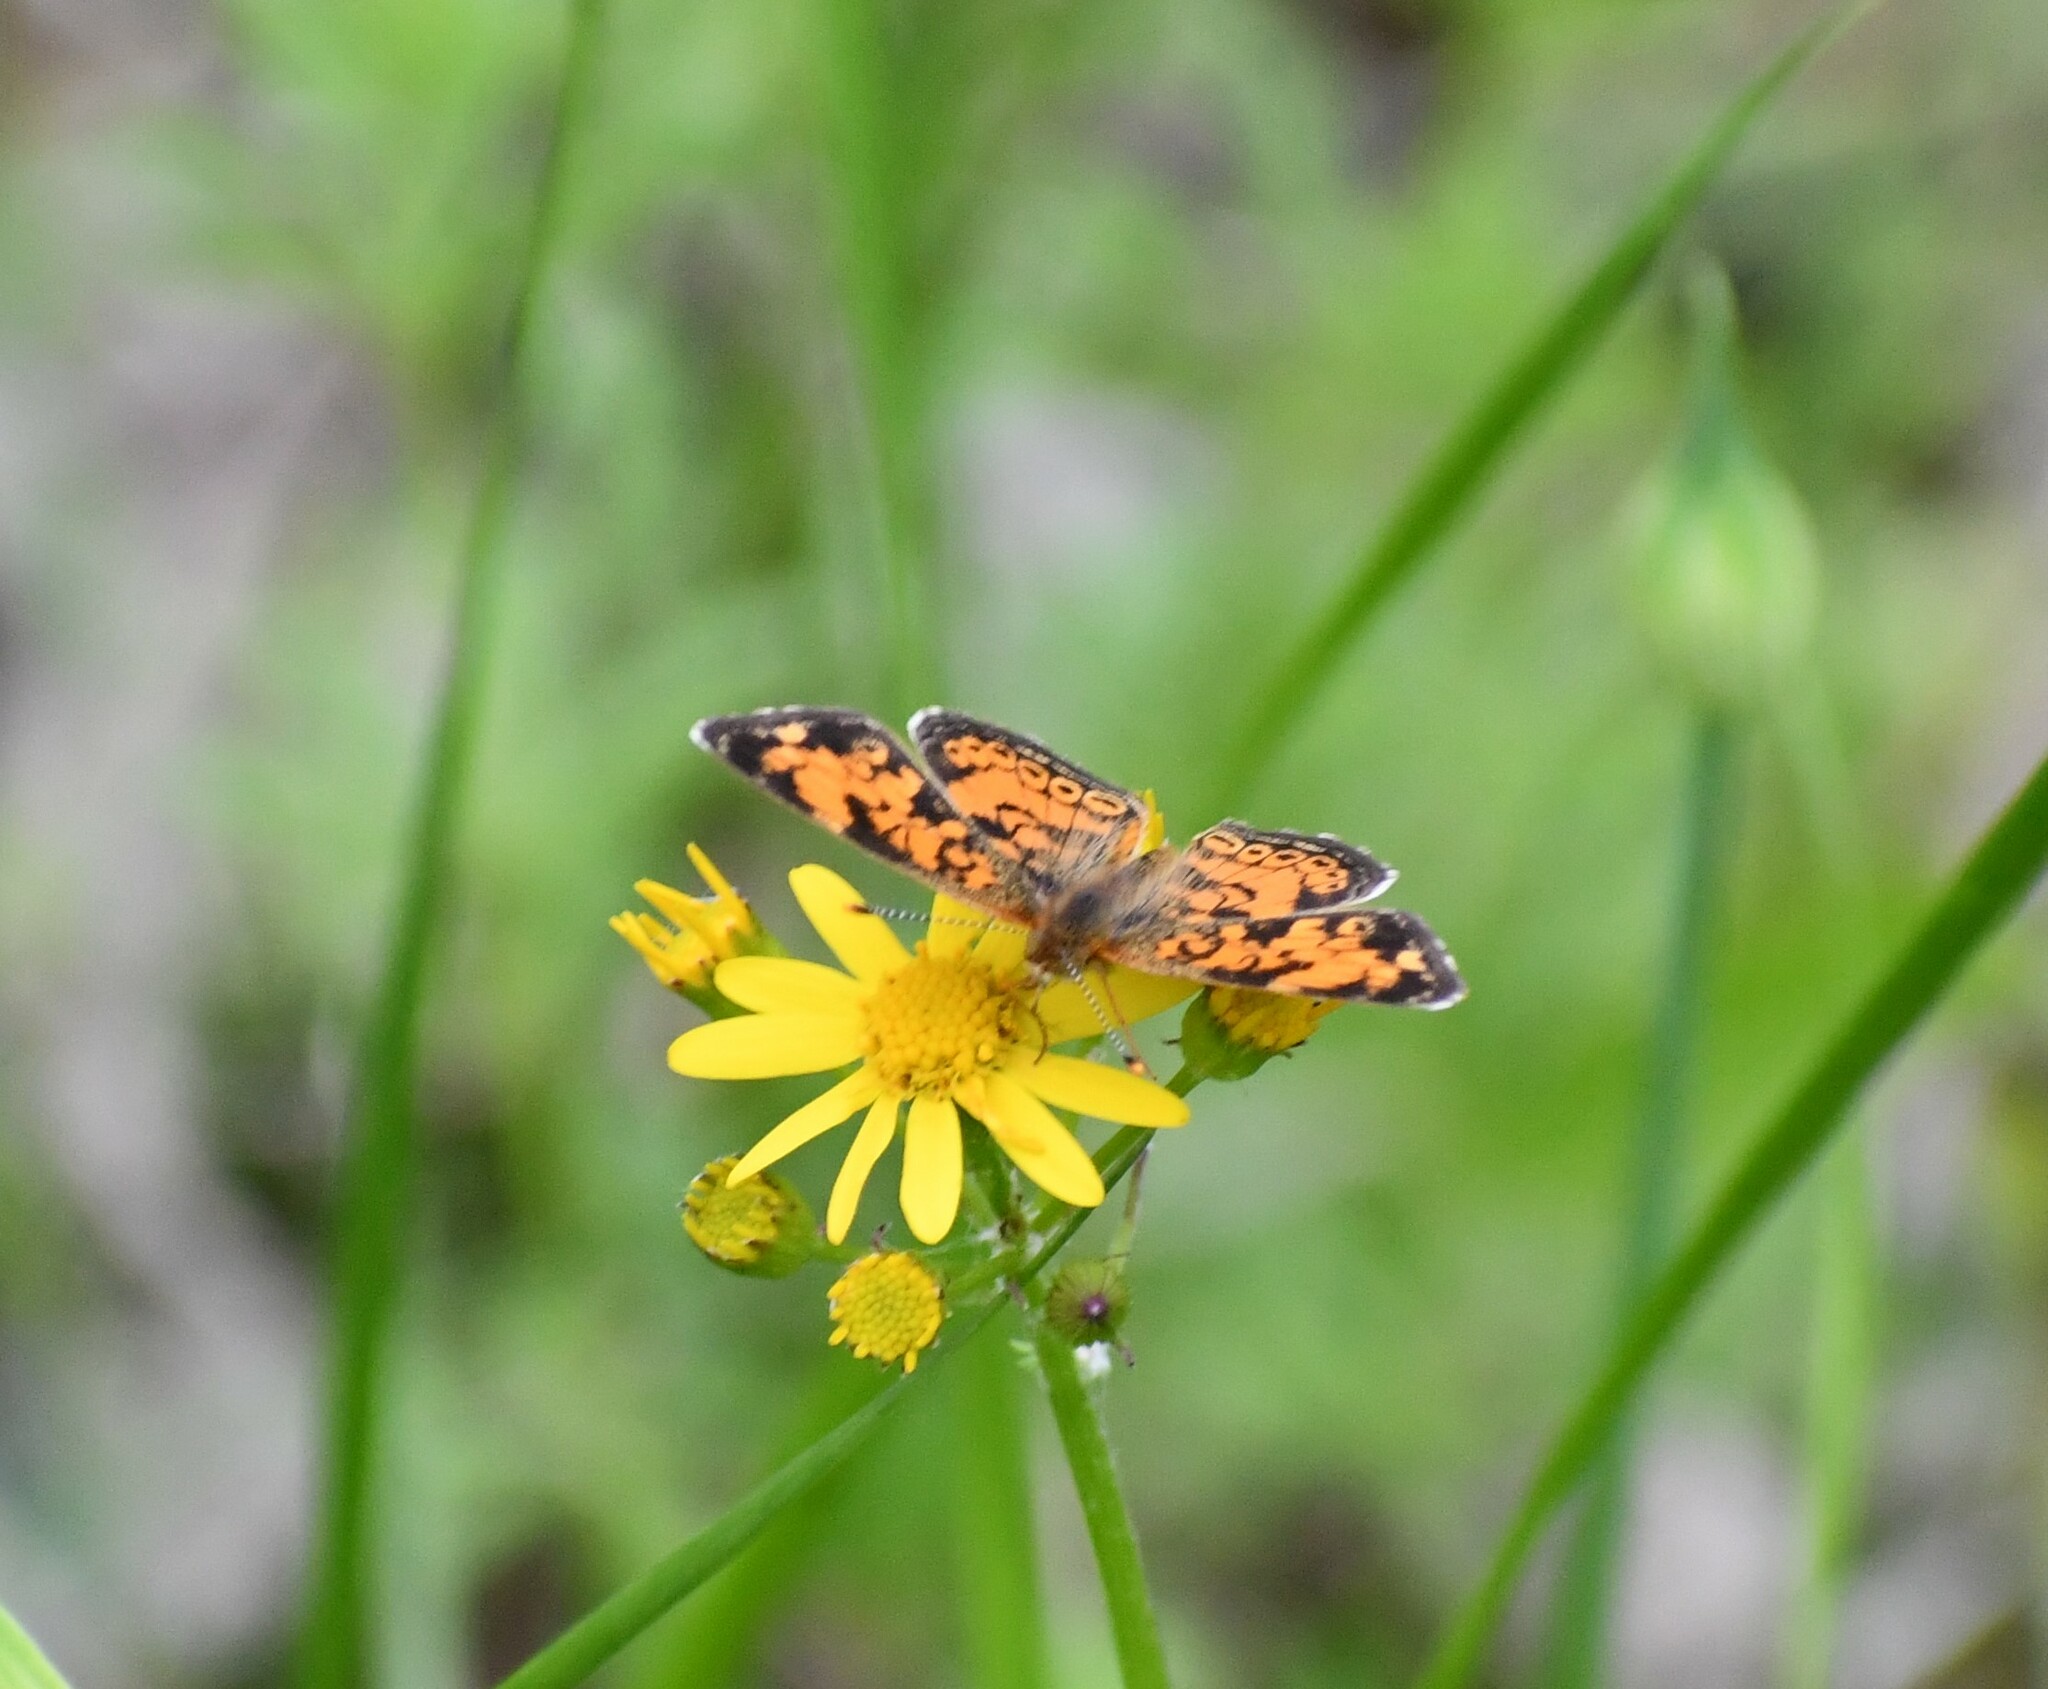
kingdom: Animalia
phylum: Arthropoda
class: Insecta
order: Lepidoptera
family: Nymphalidae
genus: Phyciodes
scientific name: Phyciodes tharos
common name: Pearl crescent
